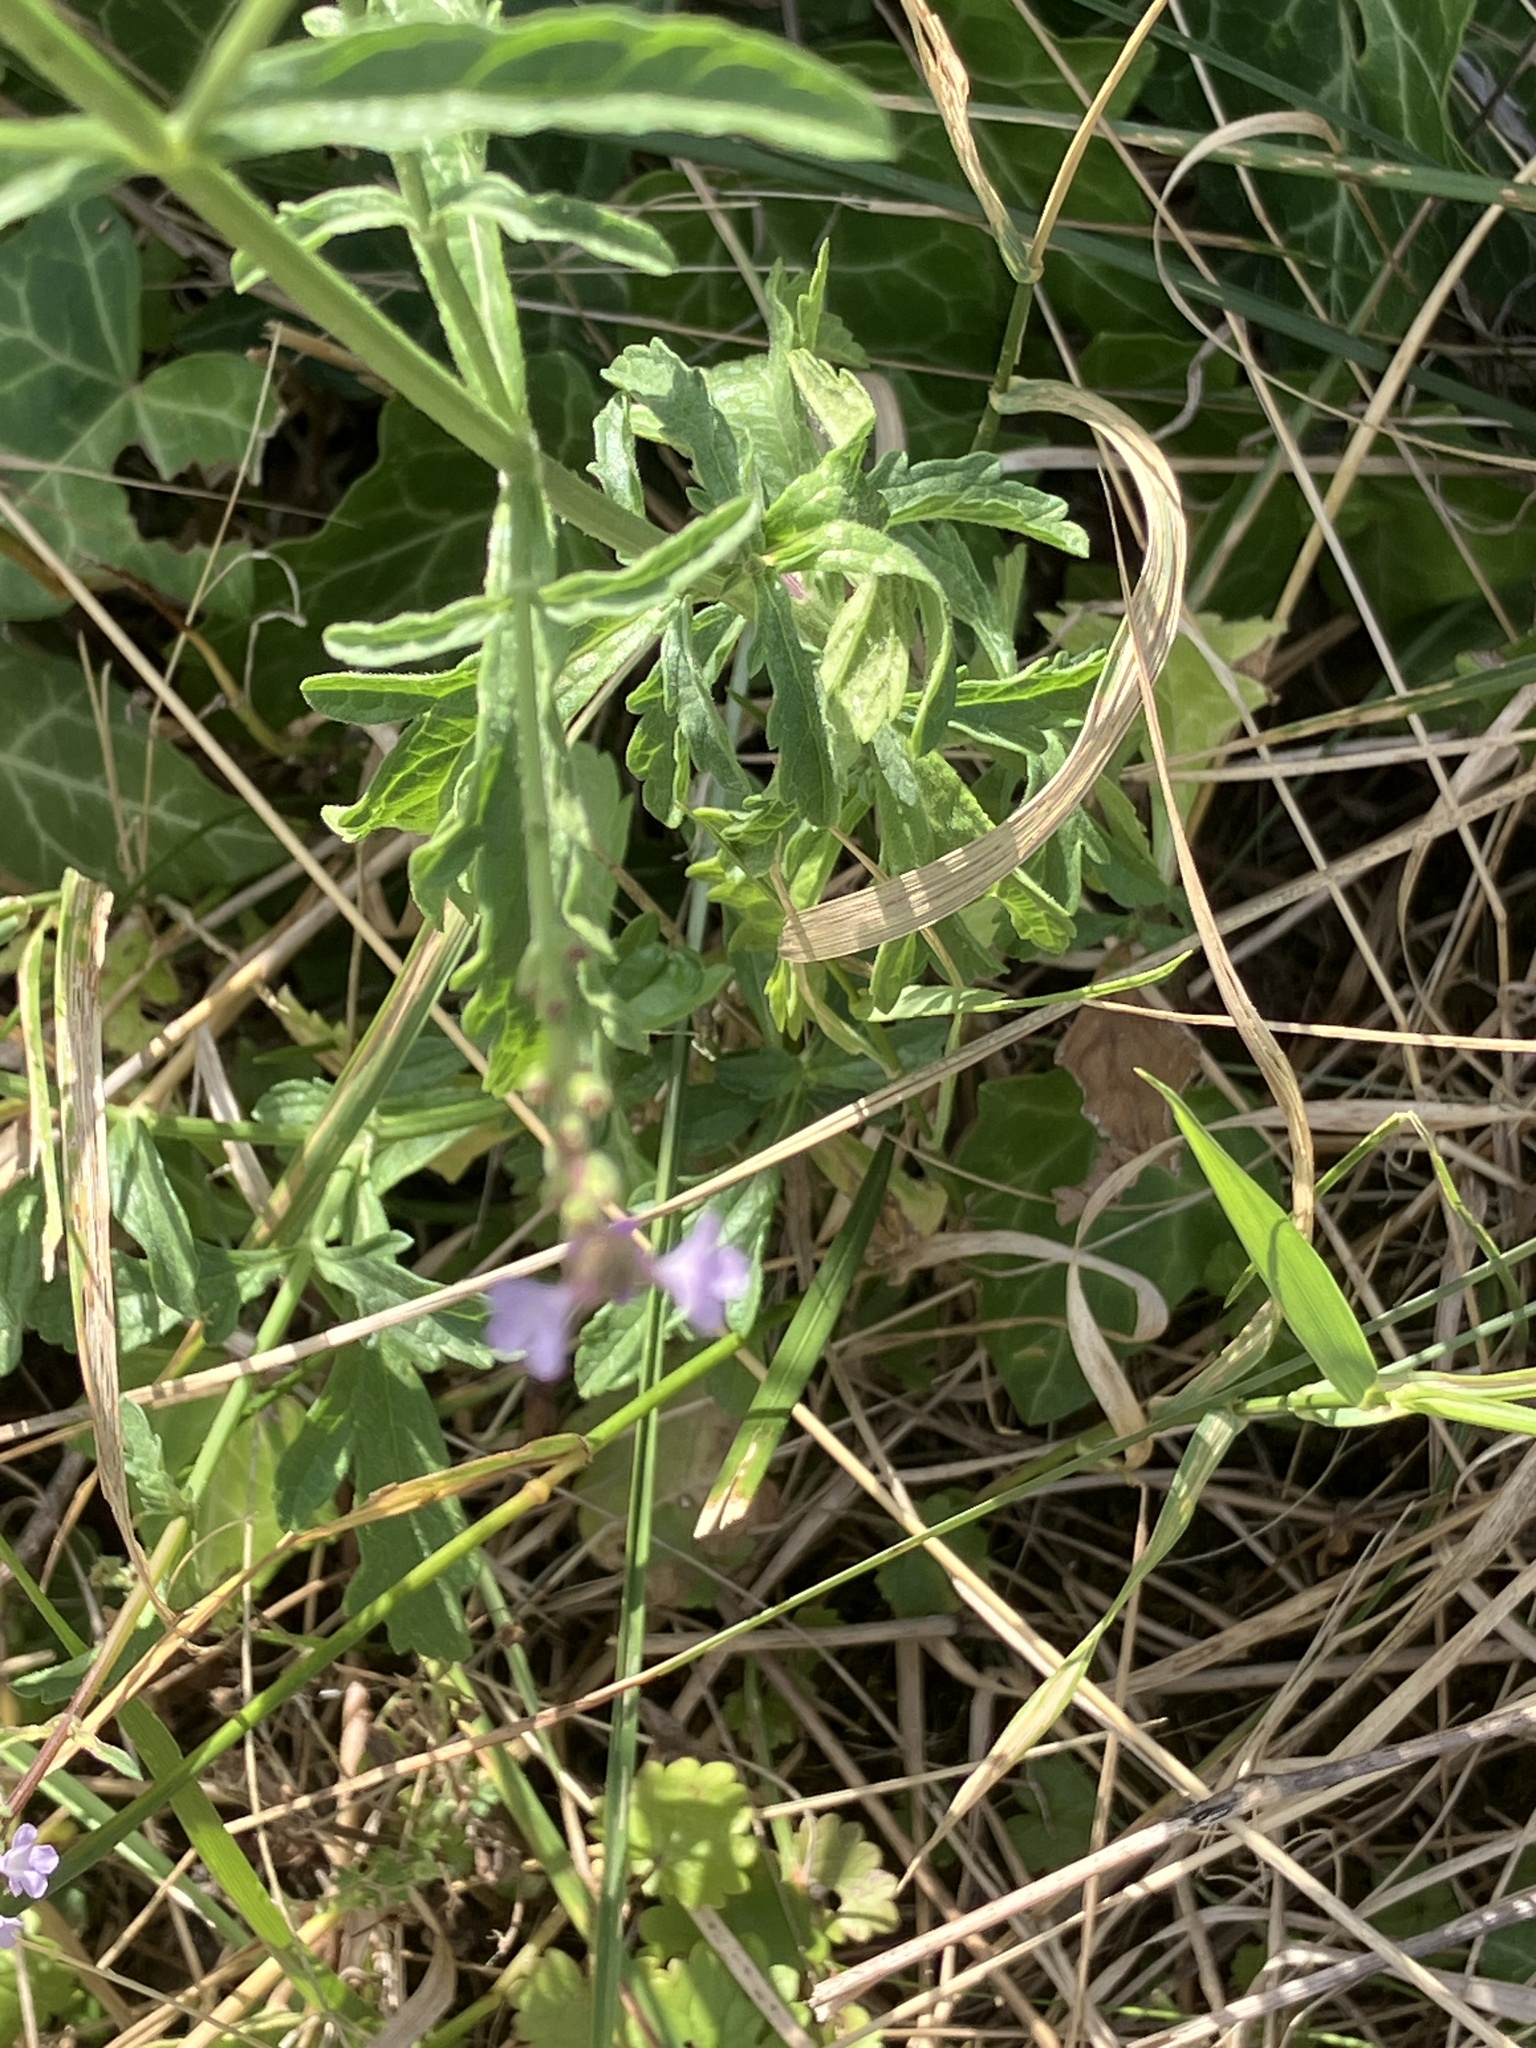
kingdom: Plantae
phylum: Tracheophyta
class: Magnoliopsida
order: Lamiales
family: Verbenaceae
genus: Verbena
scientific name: Verbena officinalis
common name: Vervain
